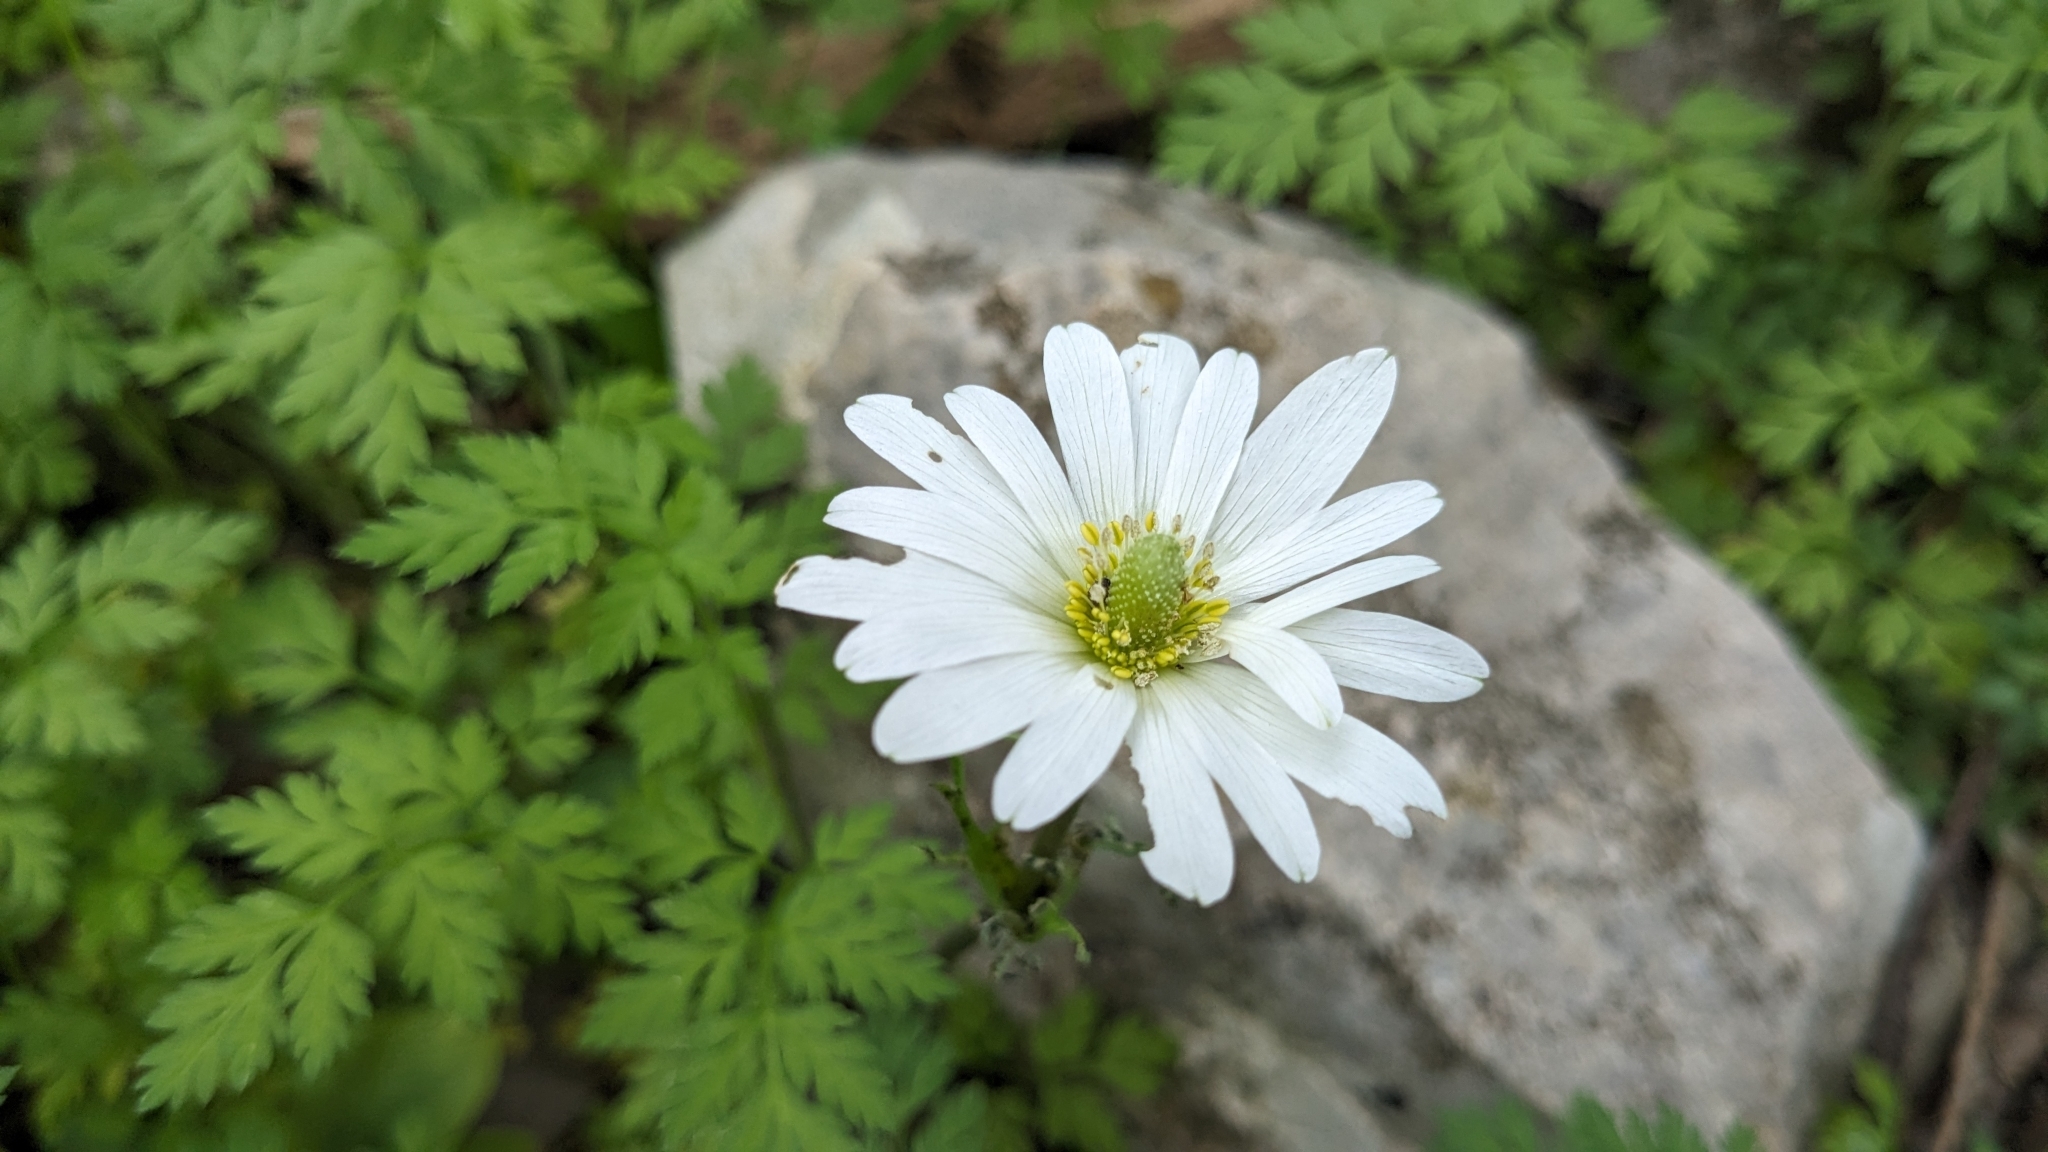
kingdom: Plantae
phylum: Tracheophyta
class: Magnoliopsida
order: Ranunculales
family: Ranunculaceae
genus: Anemone
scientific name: Anemone berlandieri
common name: Ten-petal anemone
